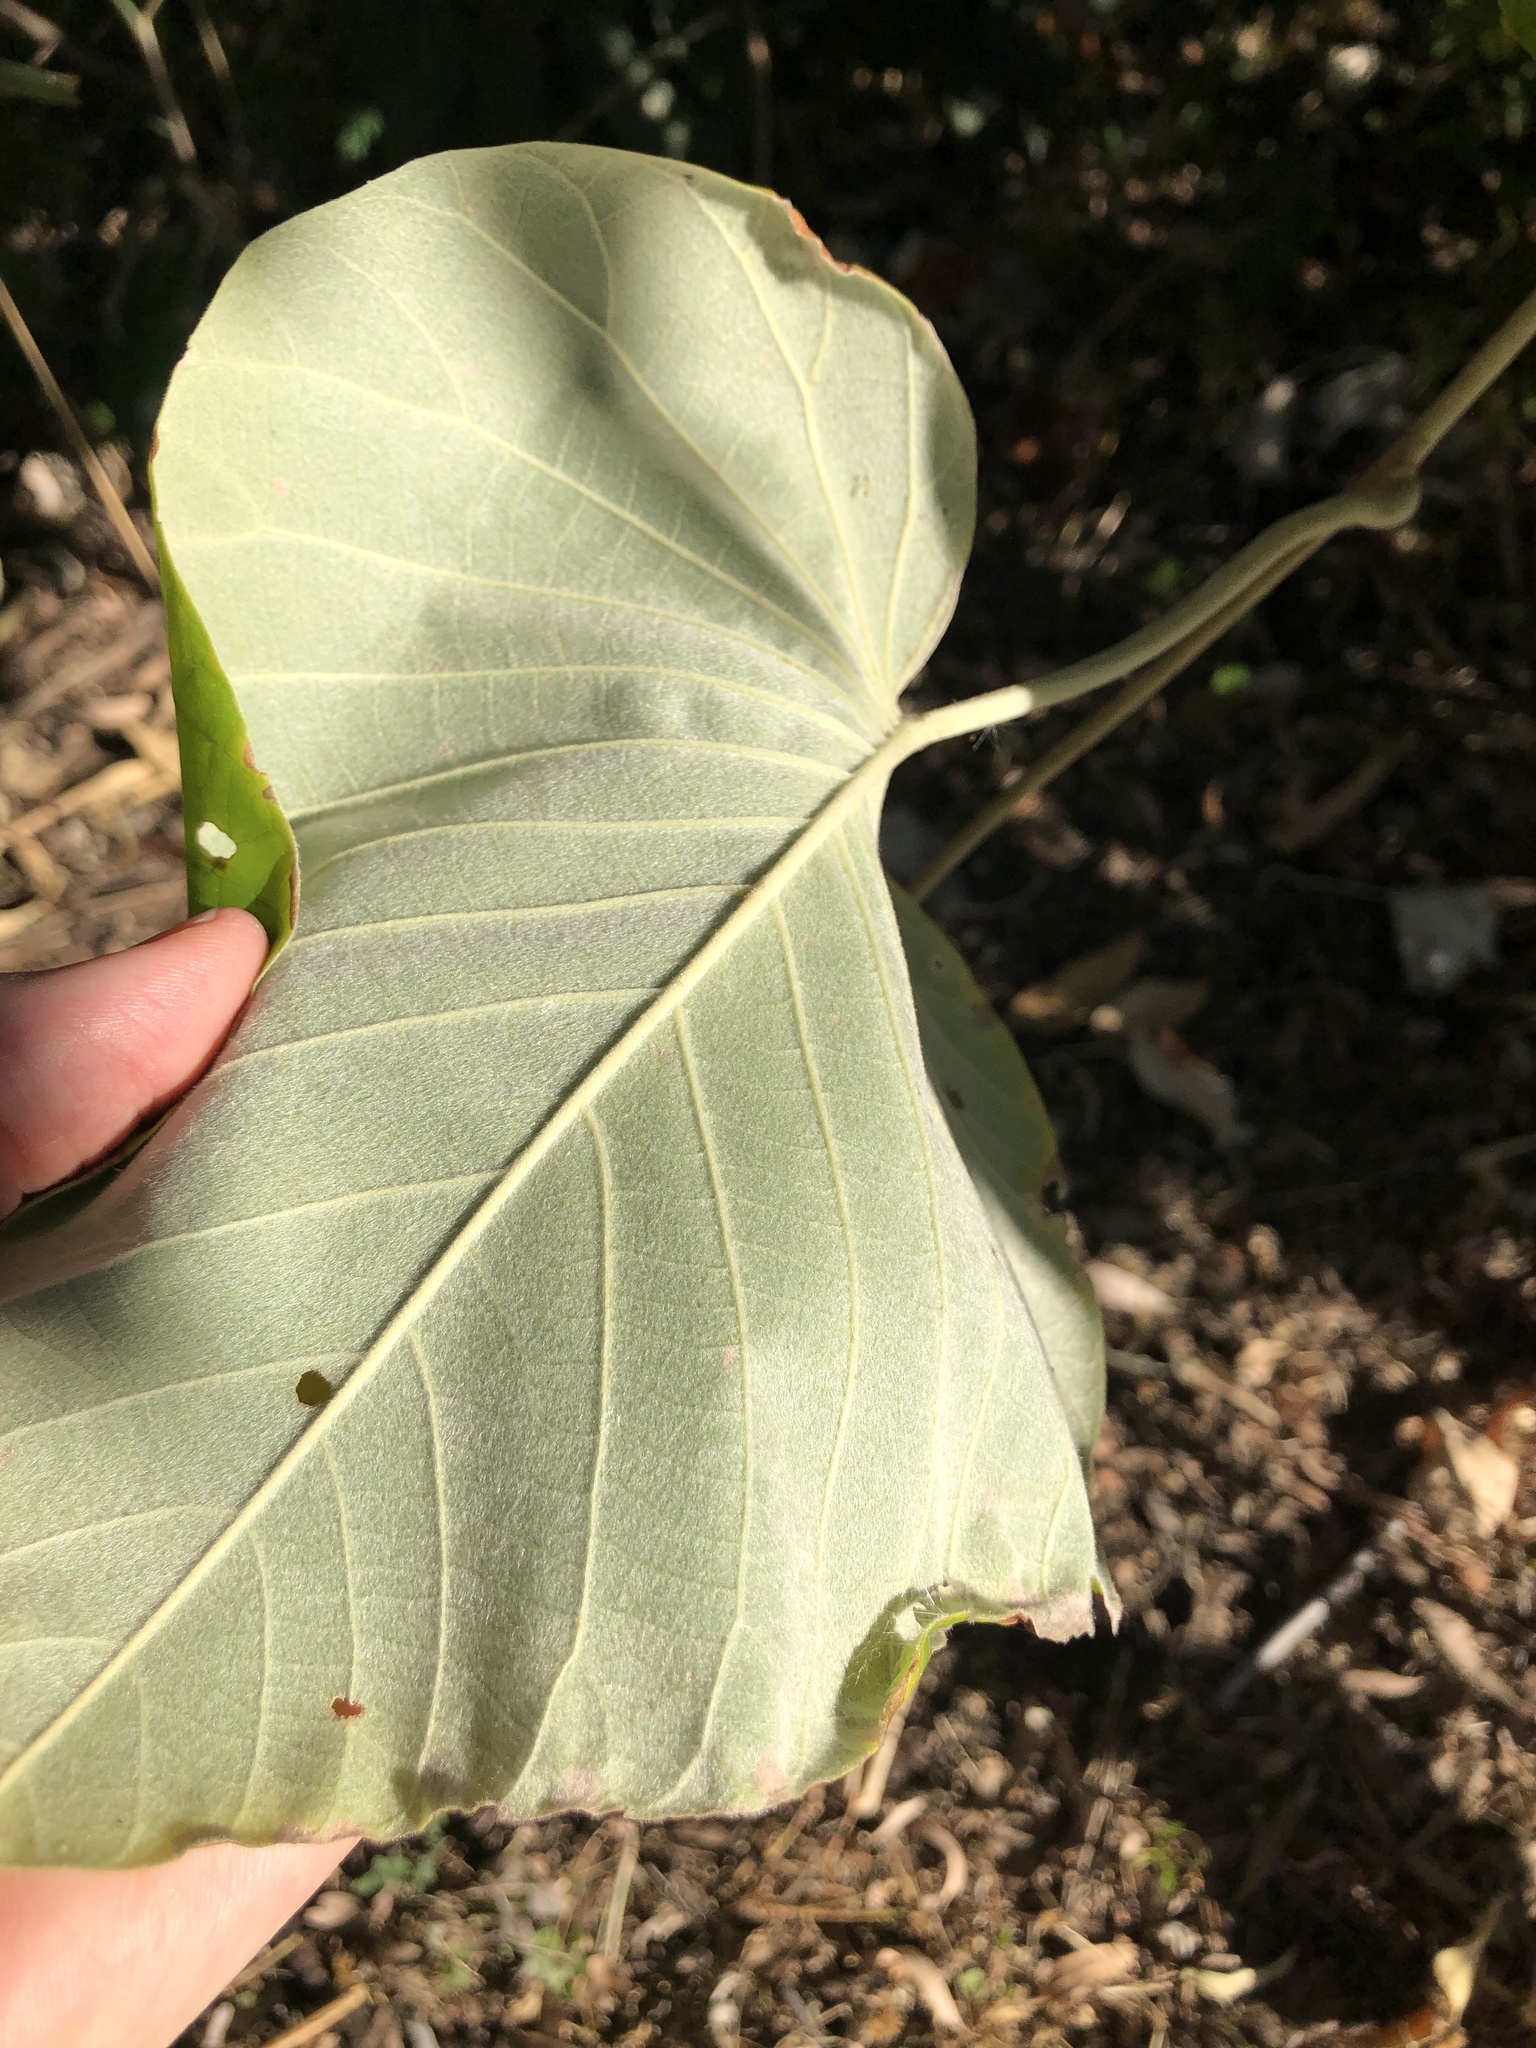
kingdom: Plantae
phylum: Tracheophyta
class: Magnoliopsida
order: Solanales
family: Convolvulaceae
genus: Argyreia
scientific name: Argyreia nervosa
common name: Elephant creeper
